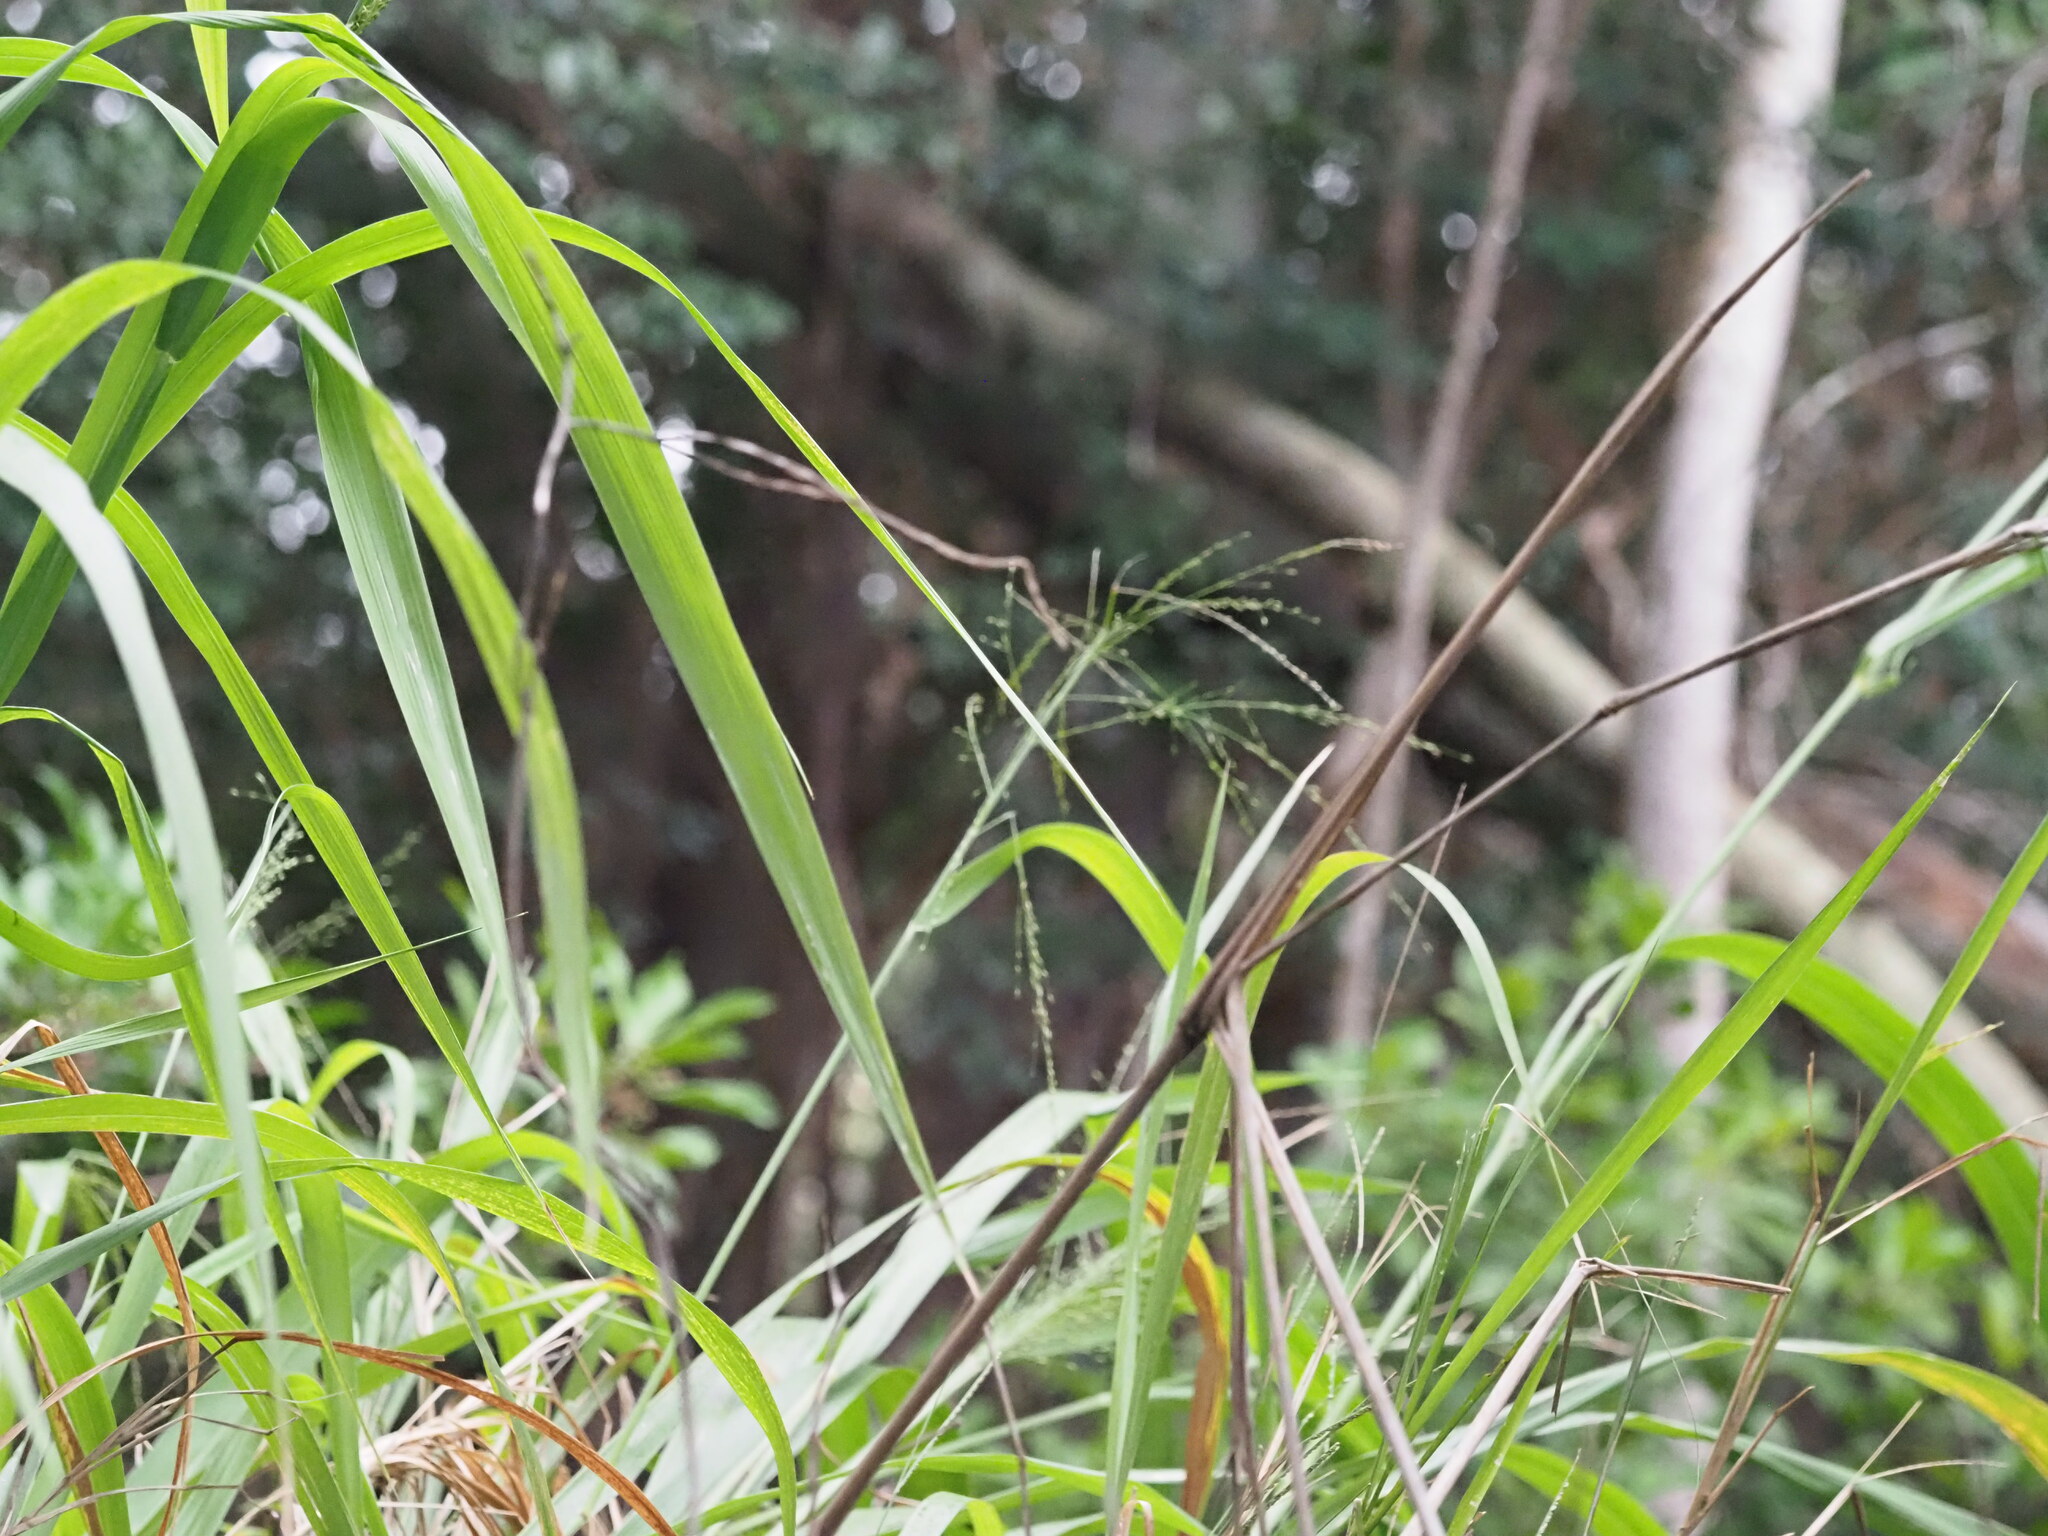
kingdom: Plantae
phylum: Tracheophyta
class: Liliopsida
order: Poales
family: Poaceae
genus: Megathyrsus
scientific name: Megathyrsus maximus
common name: Guineagrass
